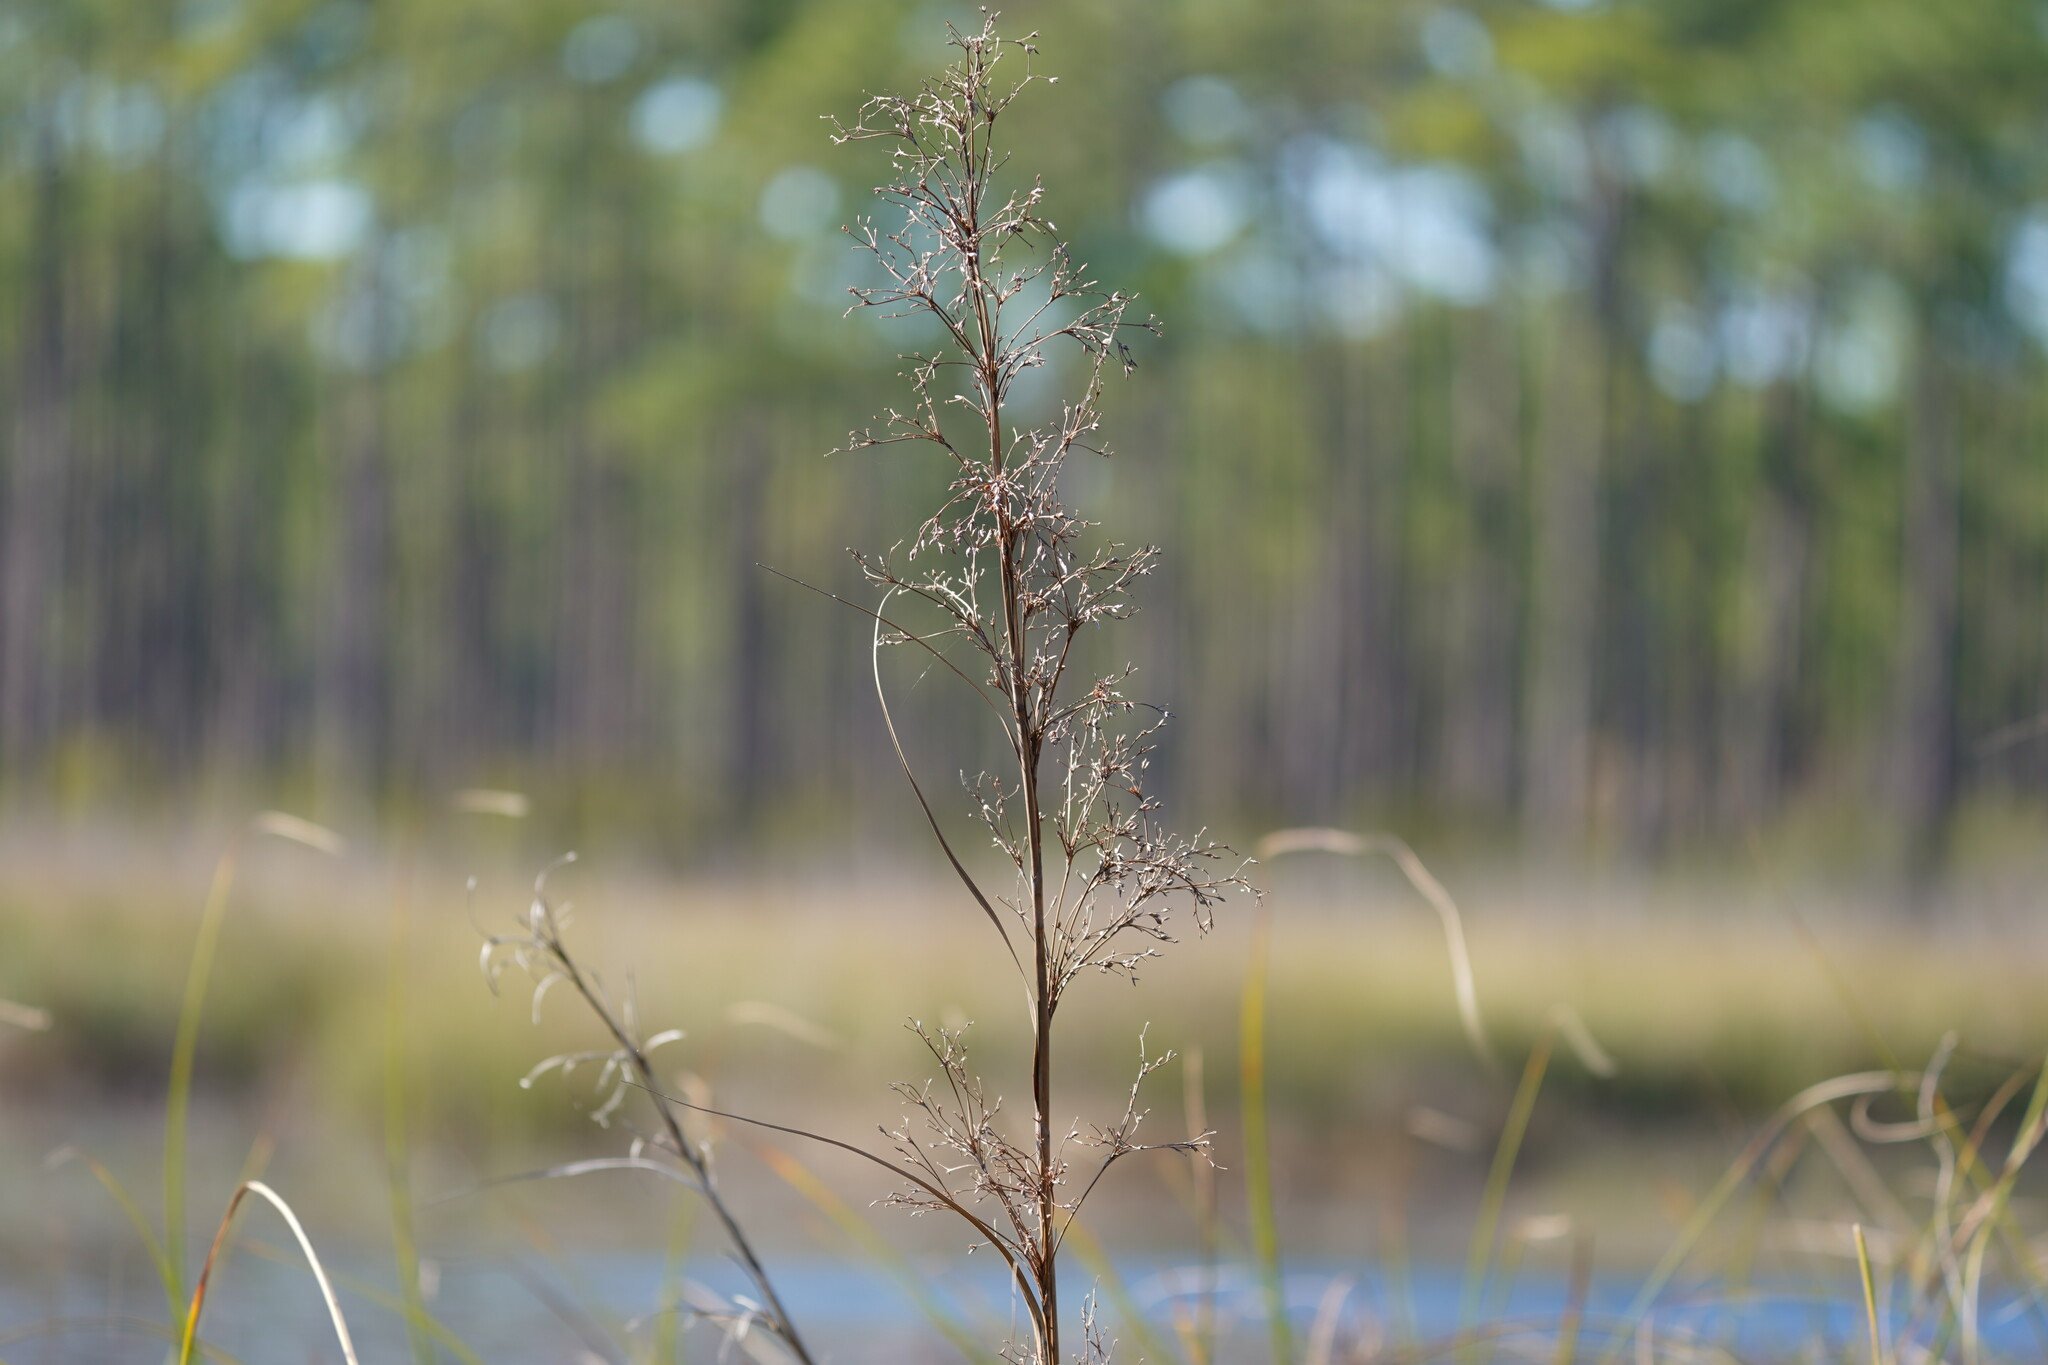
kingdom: Plantae
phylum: Tracheophyta
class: Liliopsida
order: Poales
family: Cyperaceae
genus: Cladium
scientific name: Cladium mariscus
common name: Great fen-sedge
